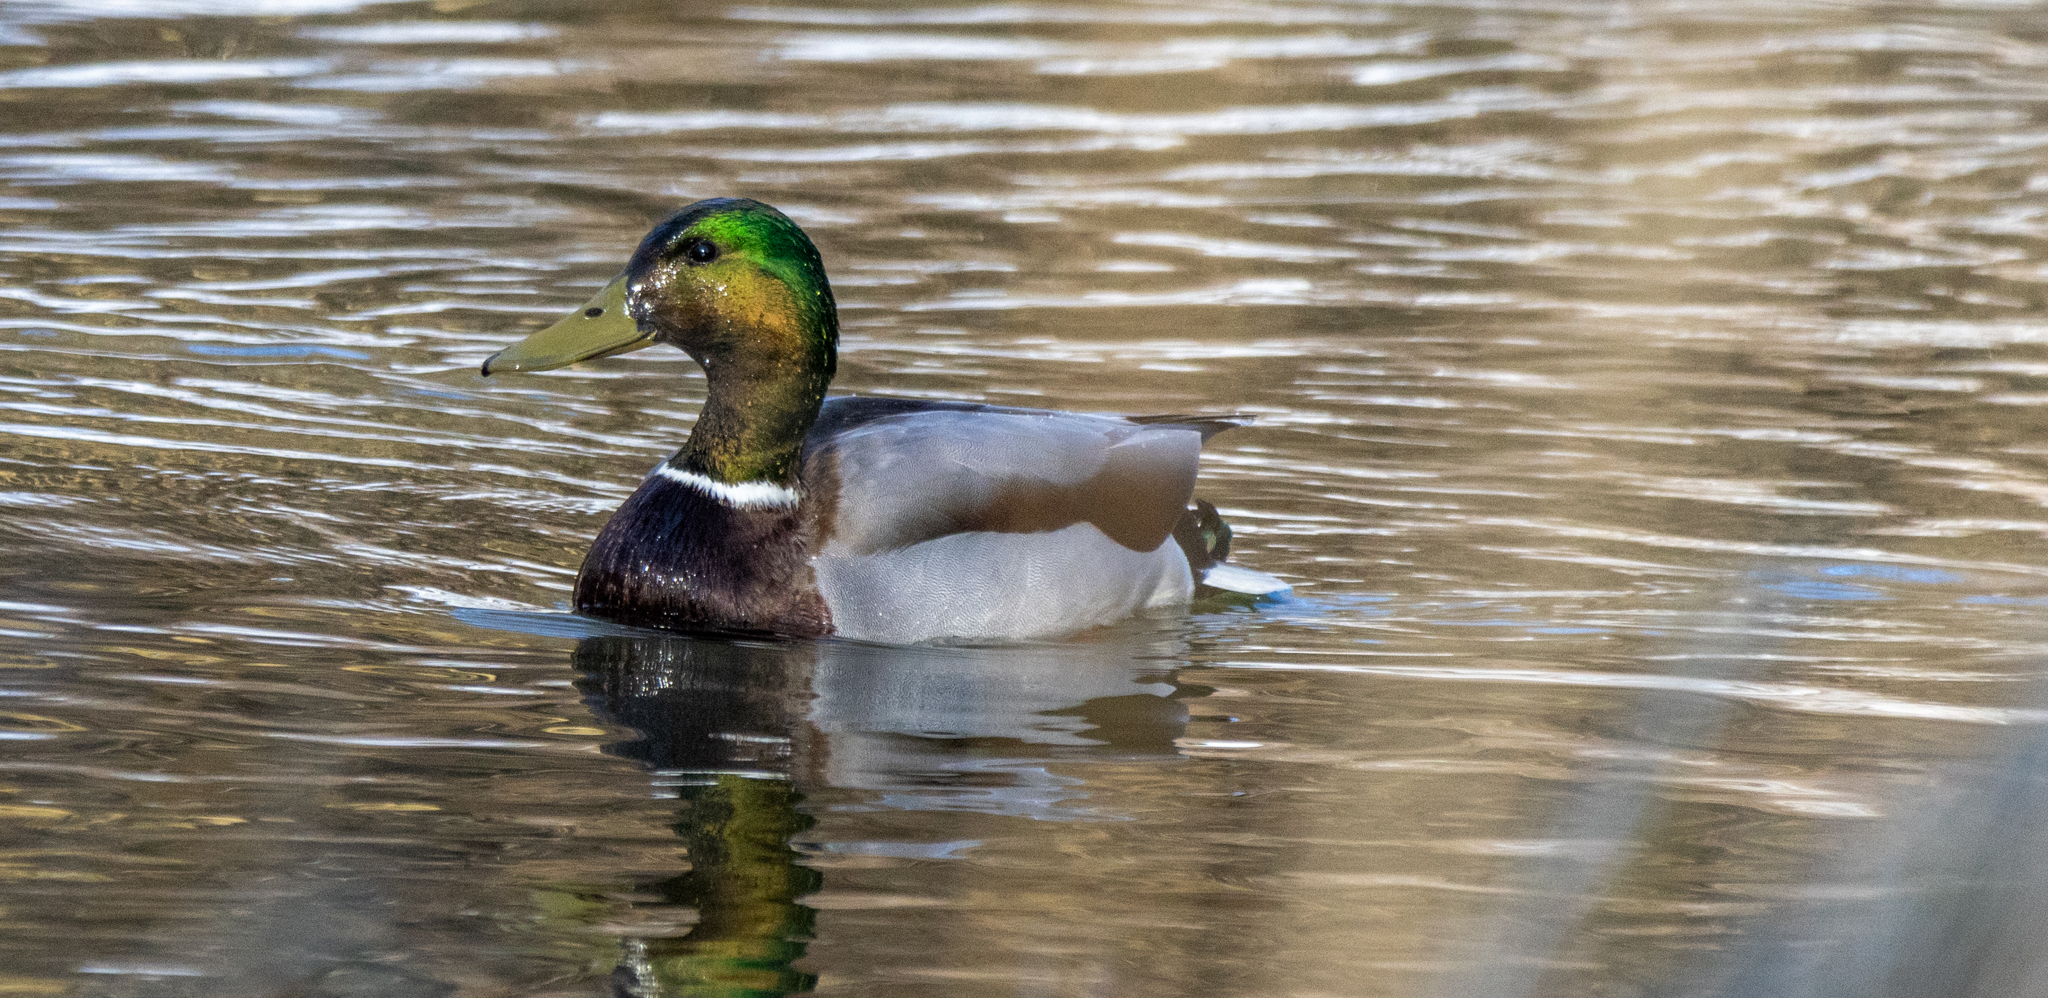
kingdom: Animalia
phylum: Chordata
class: Aves
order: Anseriformes
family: Anatidae
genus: Anas
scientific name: Anas platyrhynchos
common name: Mallard
